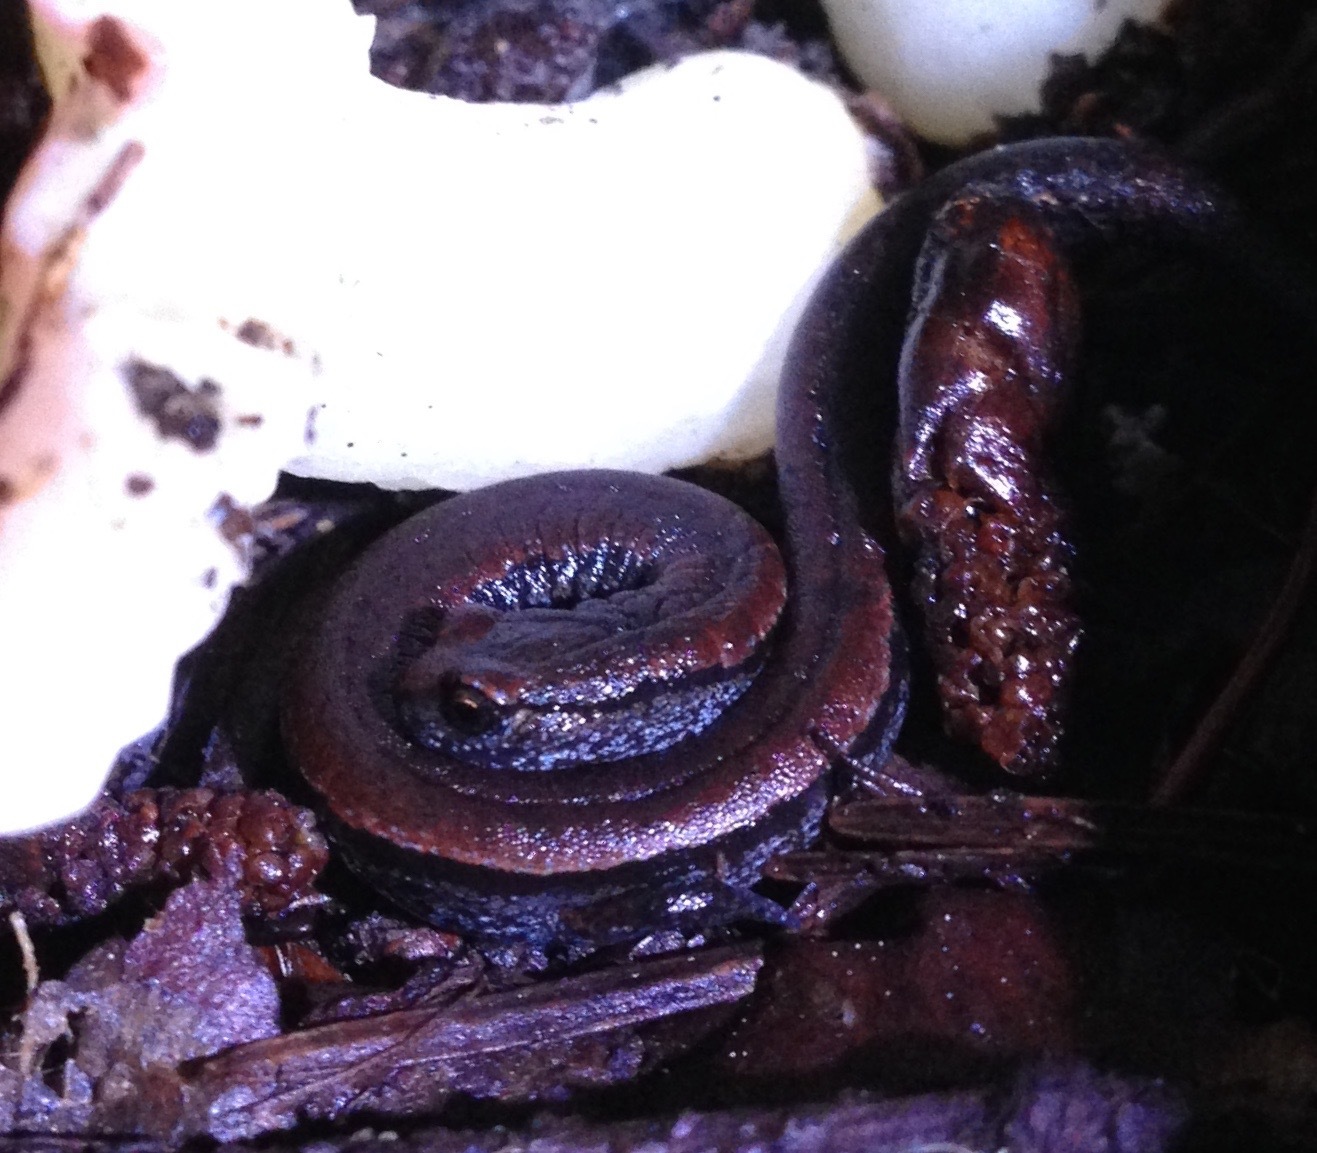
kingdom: Animalia
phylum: Chordata
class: Amphibia
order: Caudata
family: Plethodontidae
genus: Batrachoseps
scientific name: Batrachoseps attenuatus
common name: California slender salamander
